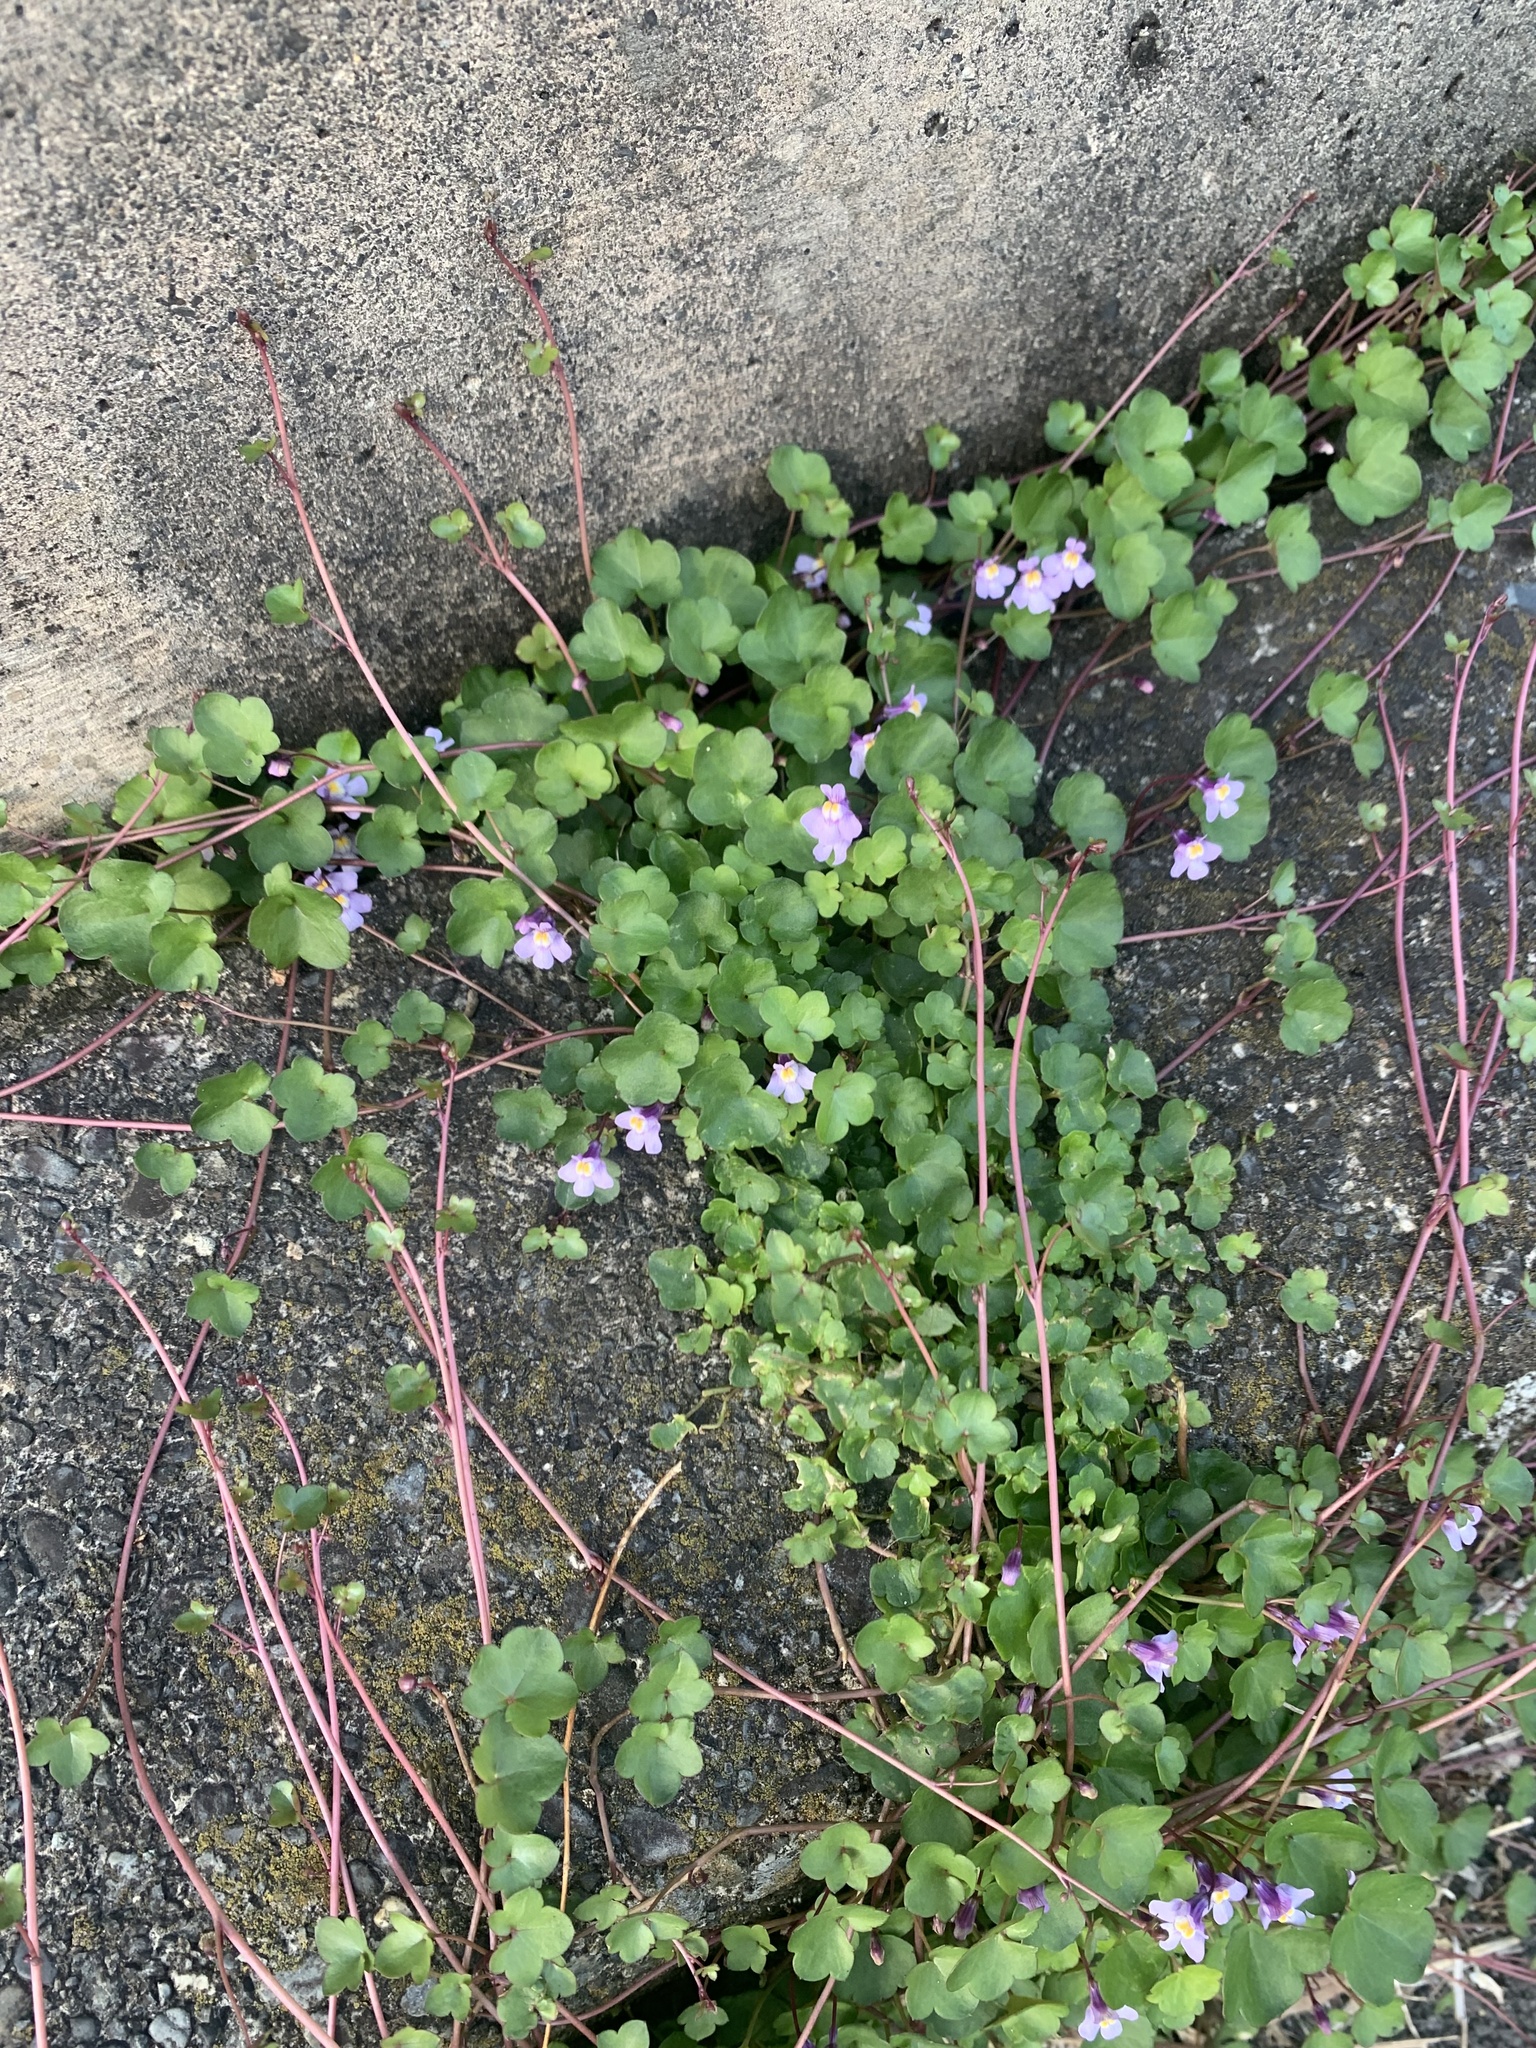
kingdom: Plantae
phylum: Tracheophyta
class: Magnoliopsida
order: Lamiales
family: Plantaginaceae
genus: Cymbalaria
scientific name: Cymbalaria muralis
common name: Ivy-leaved toadflax
